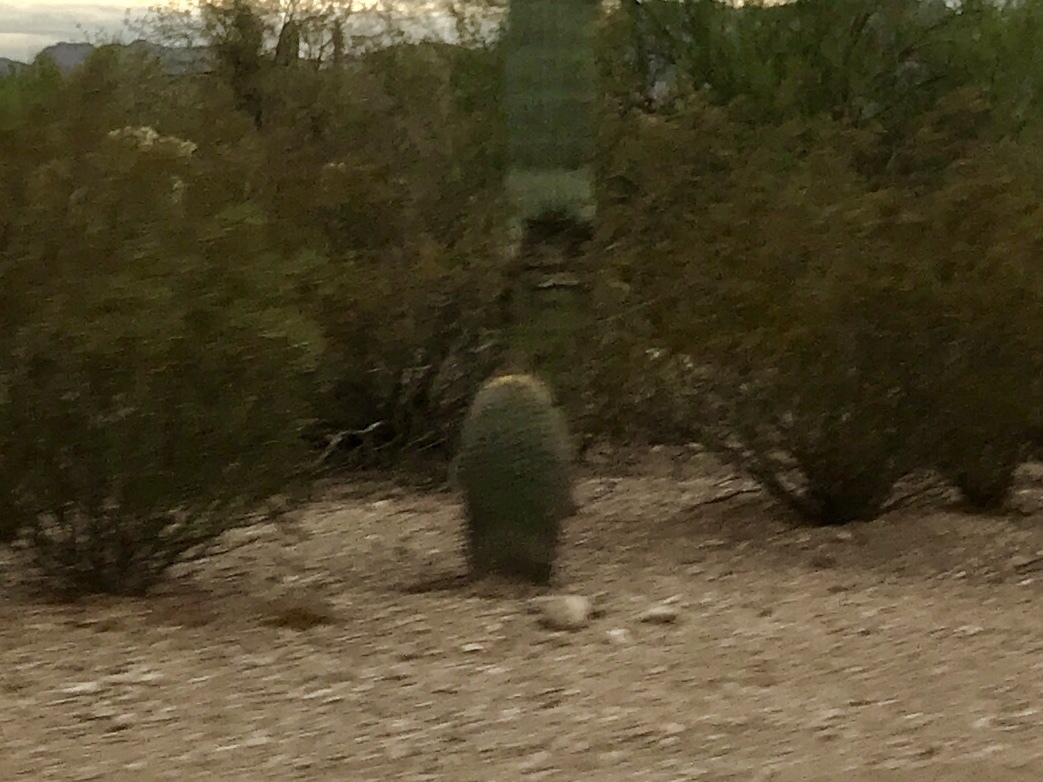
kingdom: Plantae
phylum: Tracheophyta
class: Magnoliopsida
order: Caryophyllales
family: Cactaceae
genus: Ferocactus
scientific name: Ferocactus wislizeni
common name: Candy barrel cactus
